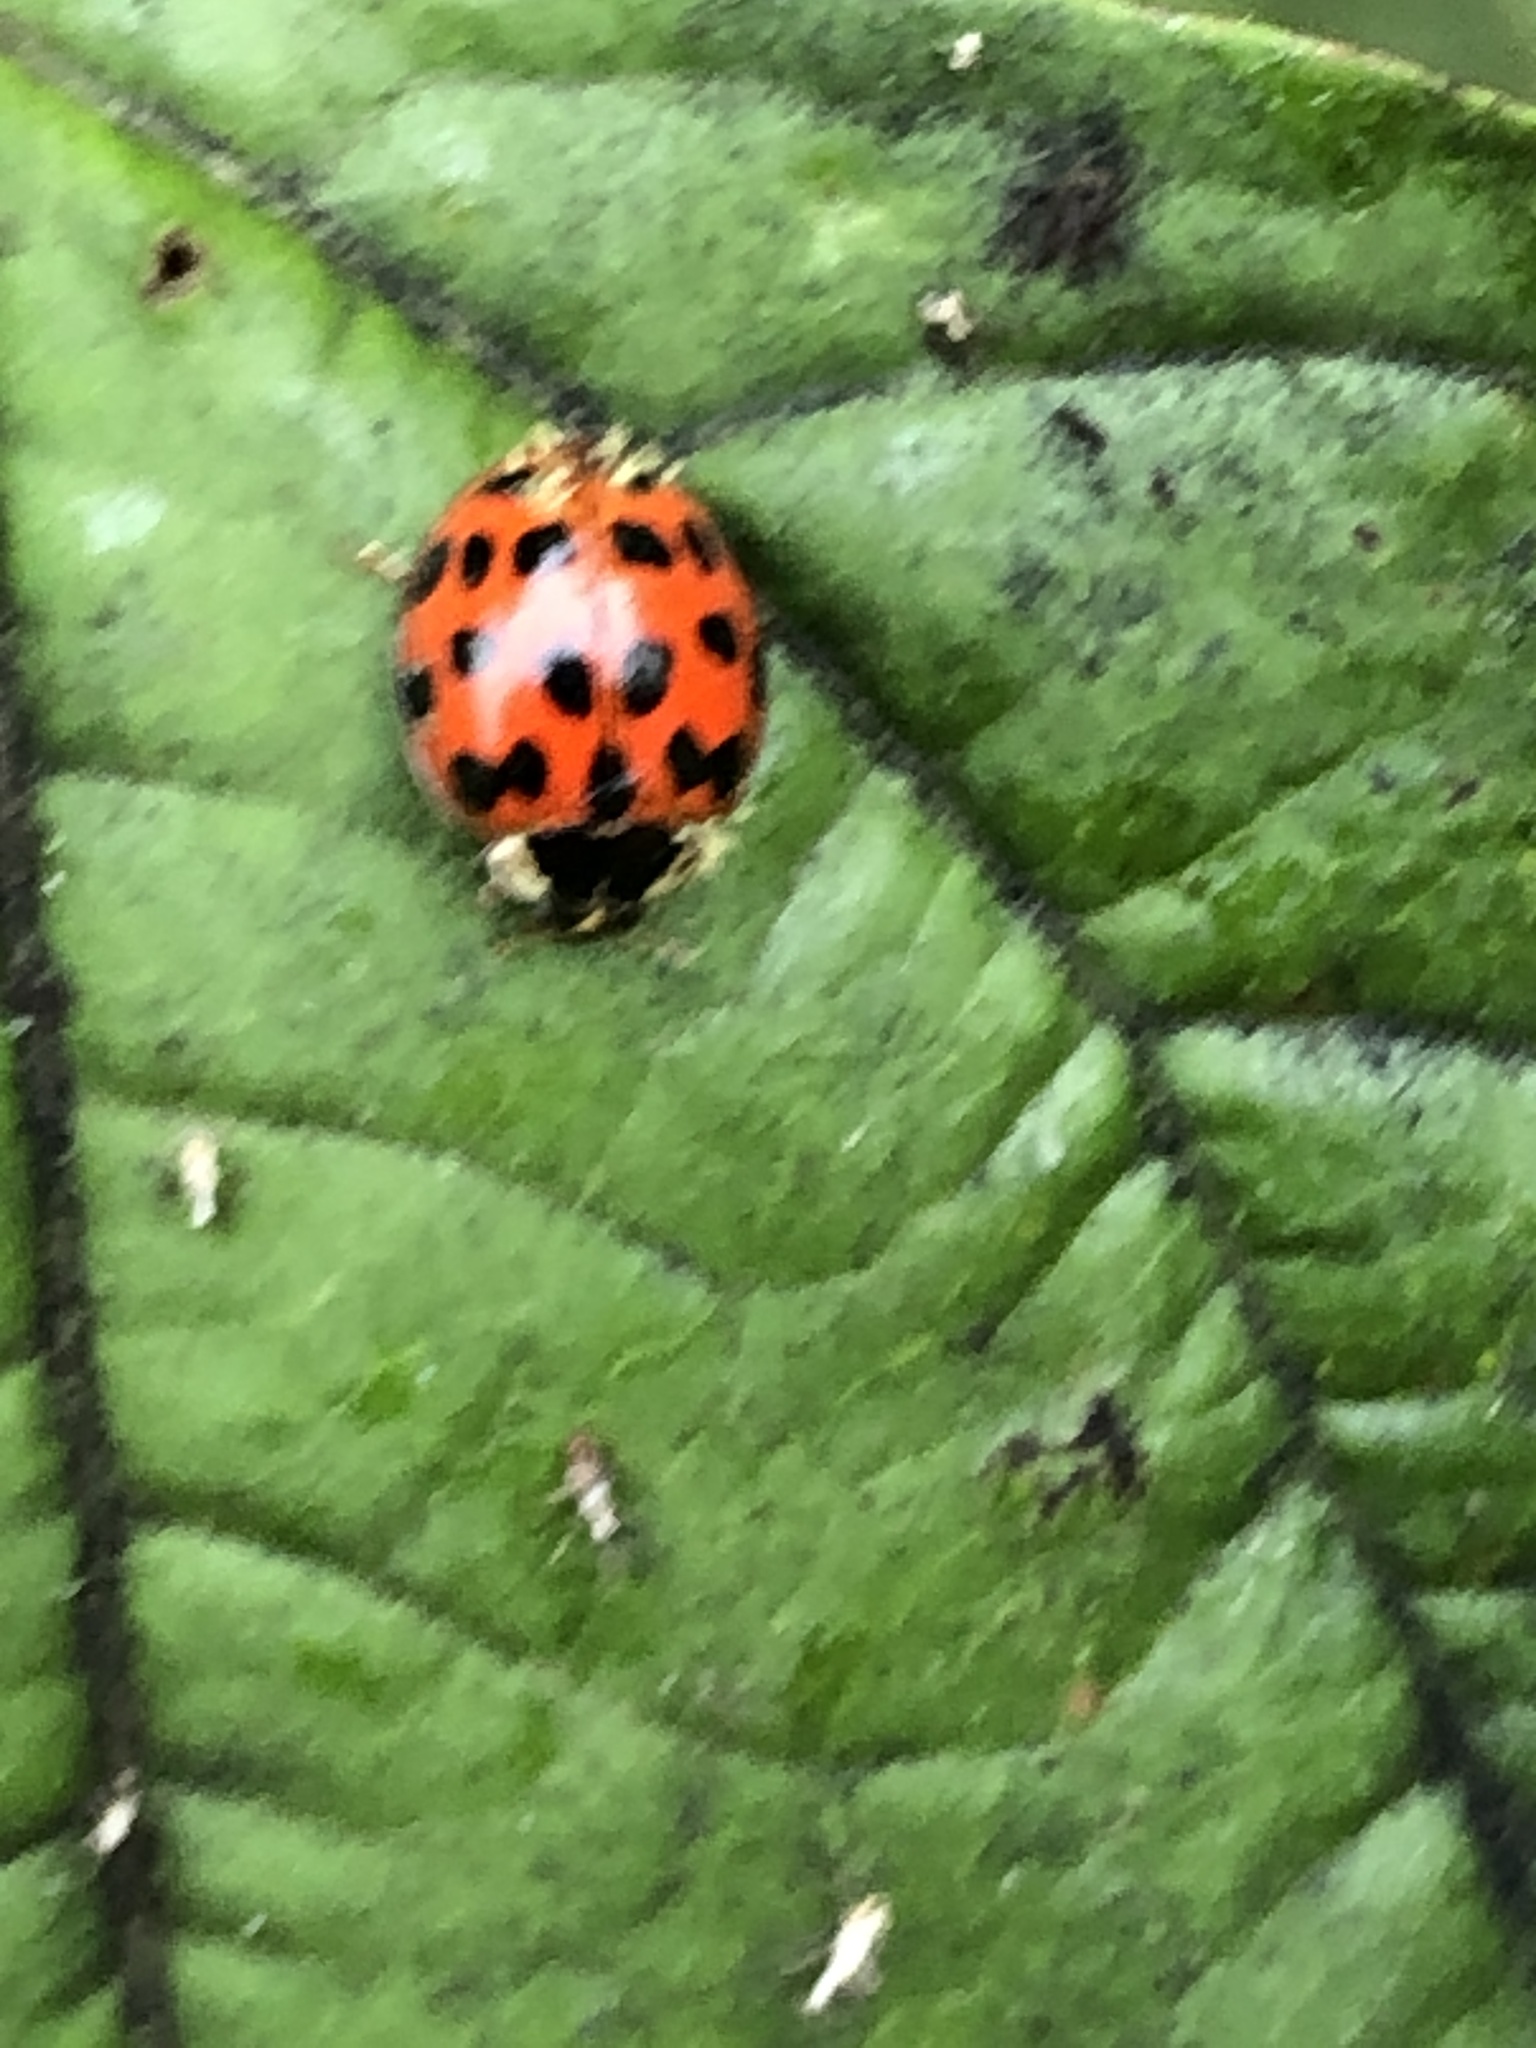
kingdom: Animalia
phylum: Arthropoda
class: Insecta
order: Coleoptera
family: Coccinellidae
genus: Harmonia
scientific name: Harmonia axyridis
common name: Harlequin ladybird
